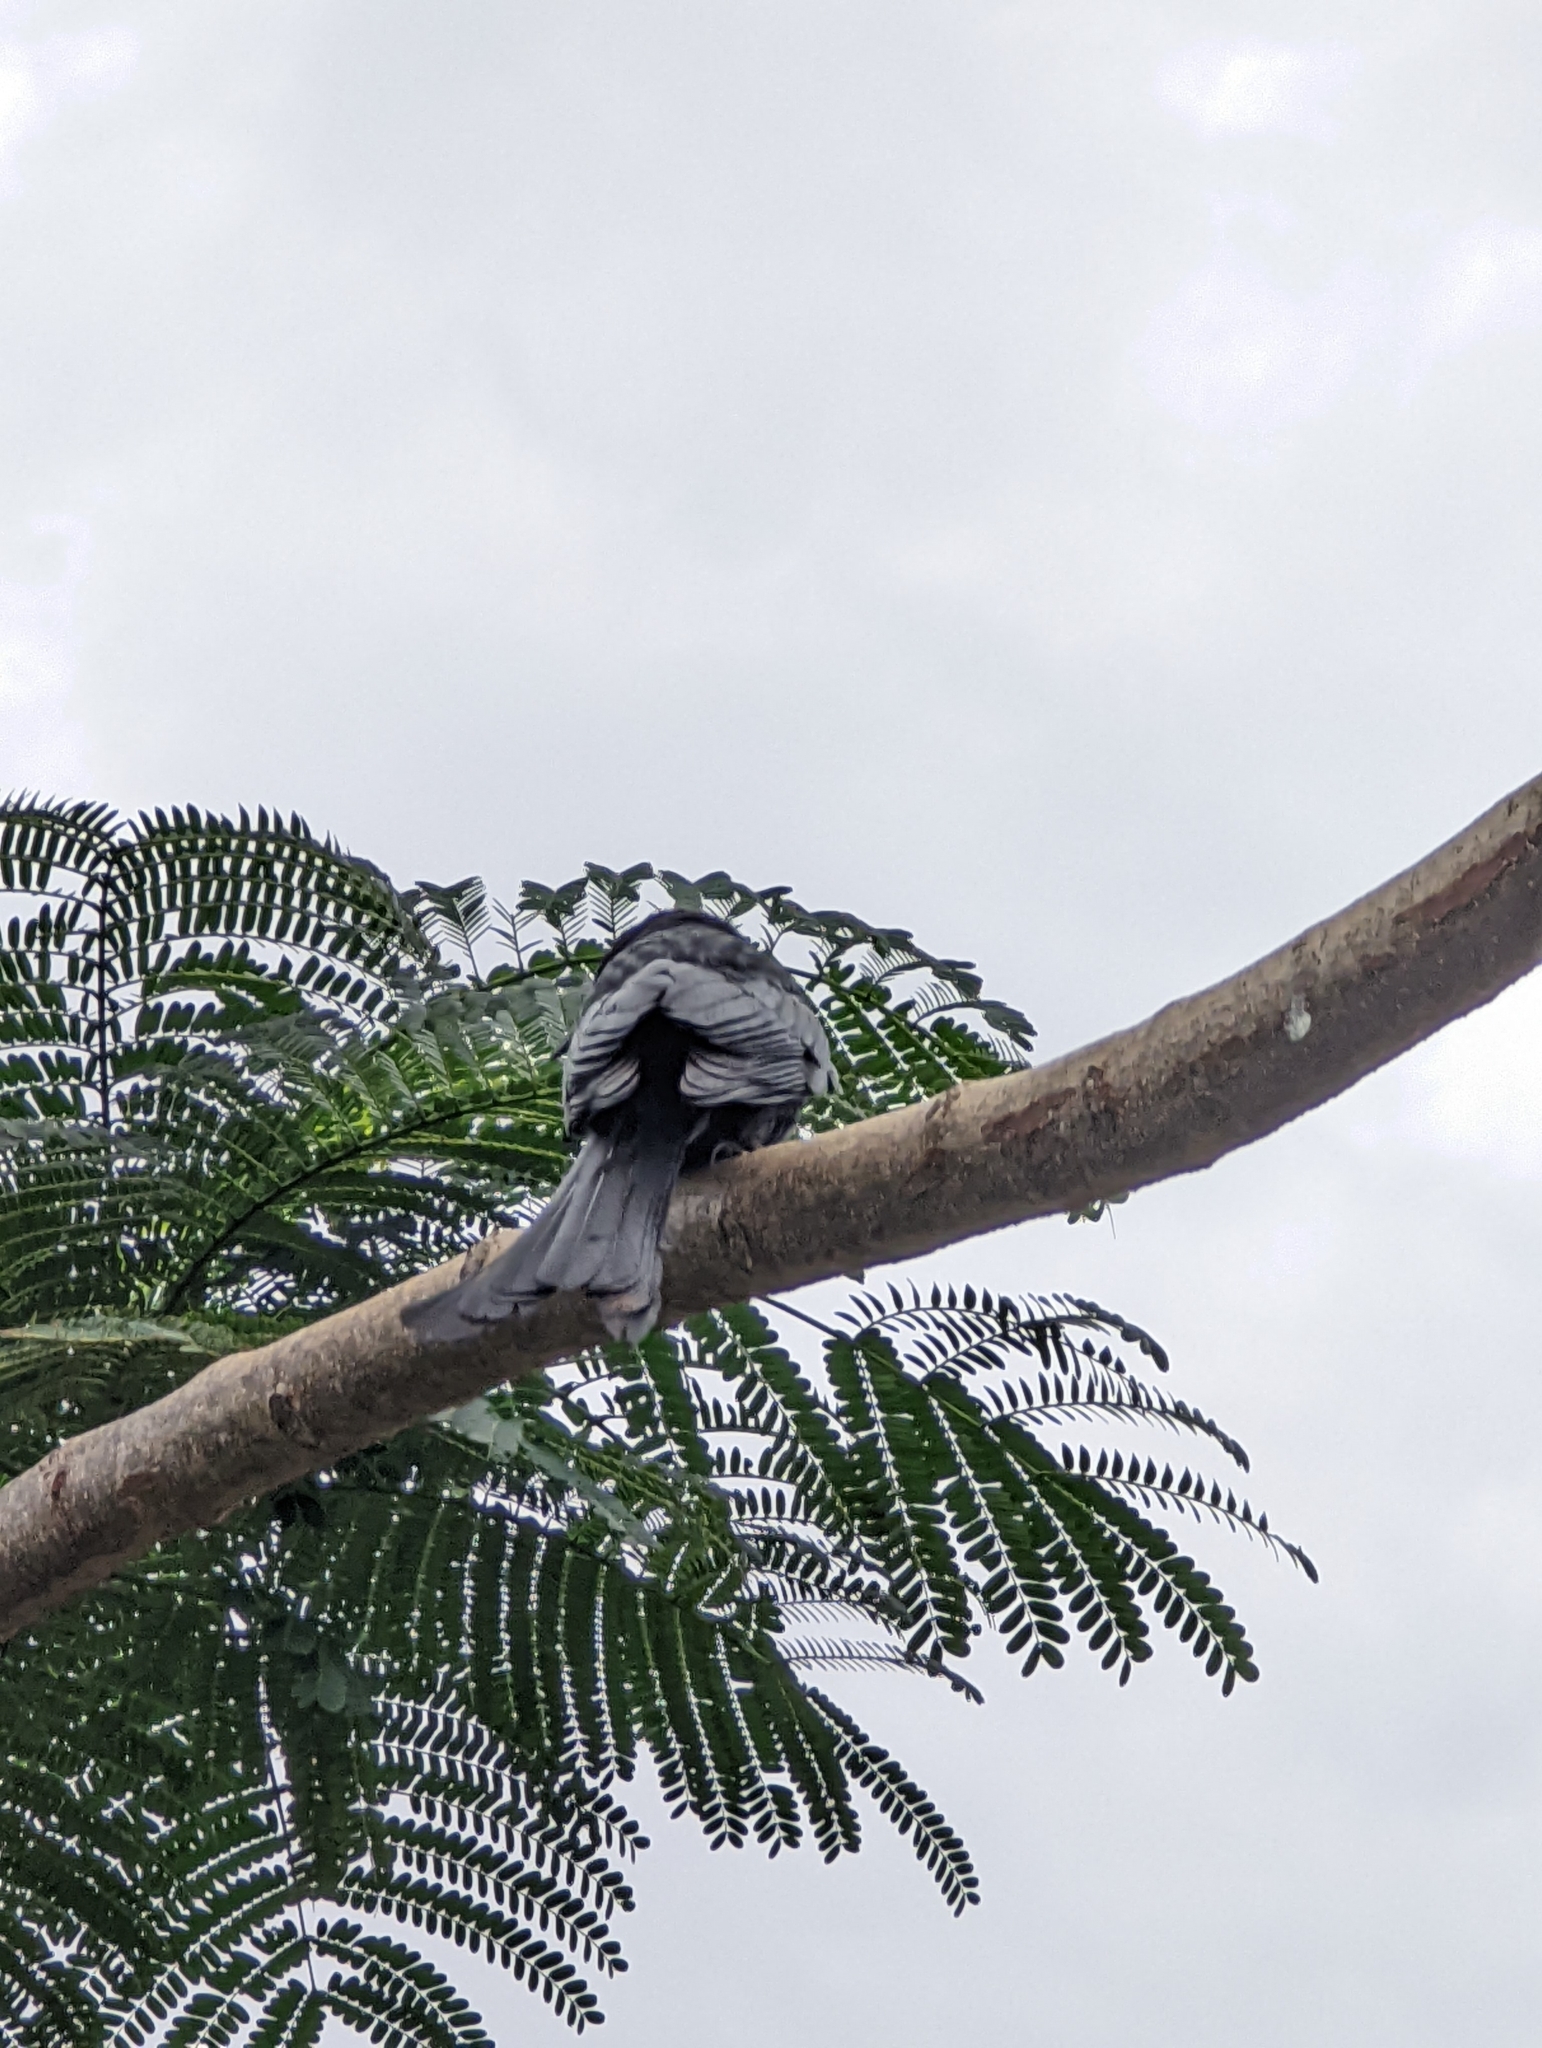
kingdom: Animalia
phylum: Chordata
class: Aves
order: Passeriformes
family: Dicruridae
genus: Dicrurus
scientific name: Dicrurus macrocercus
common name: Black drongo
